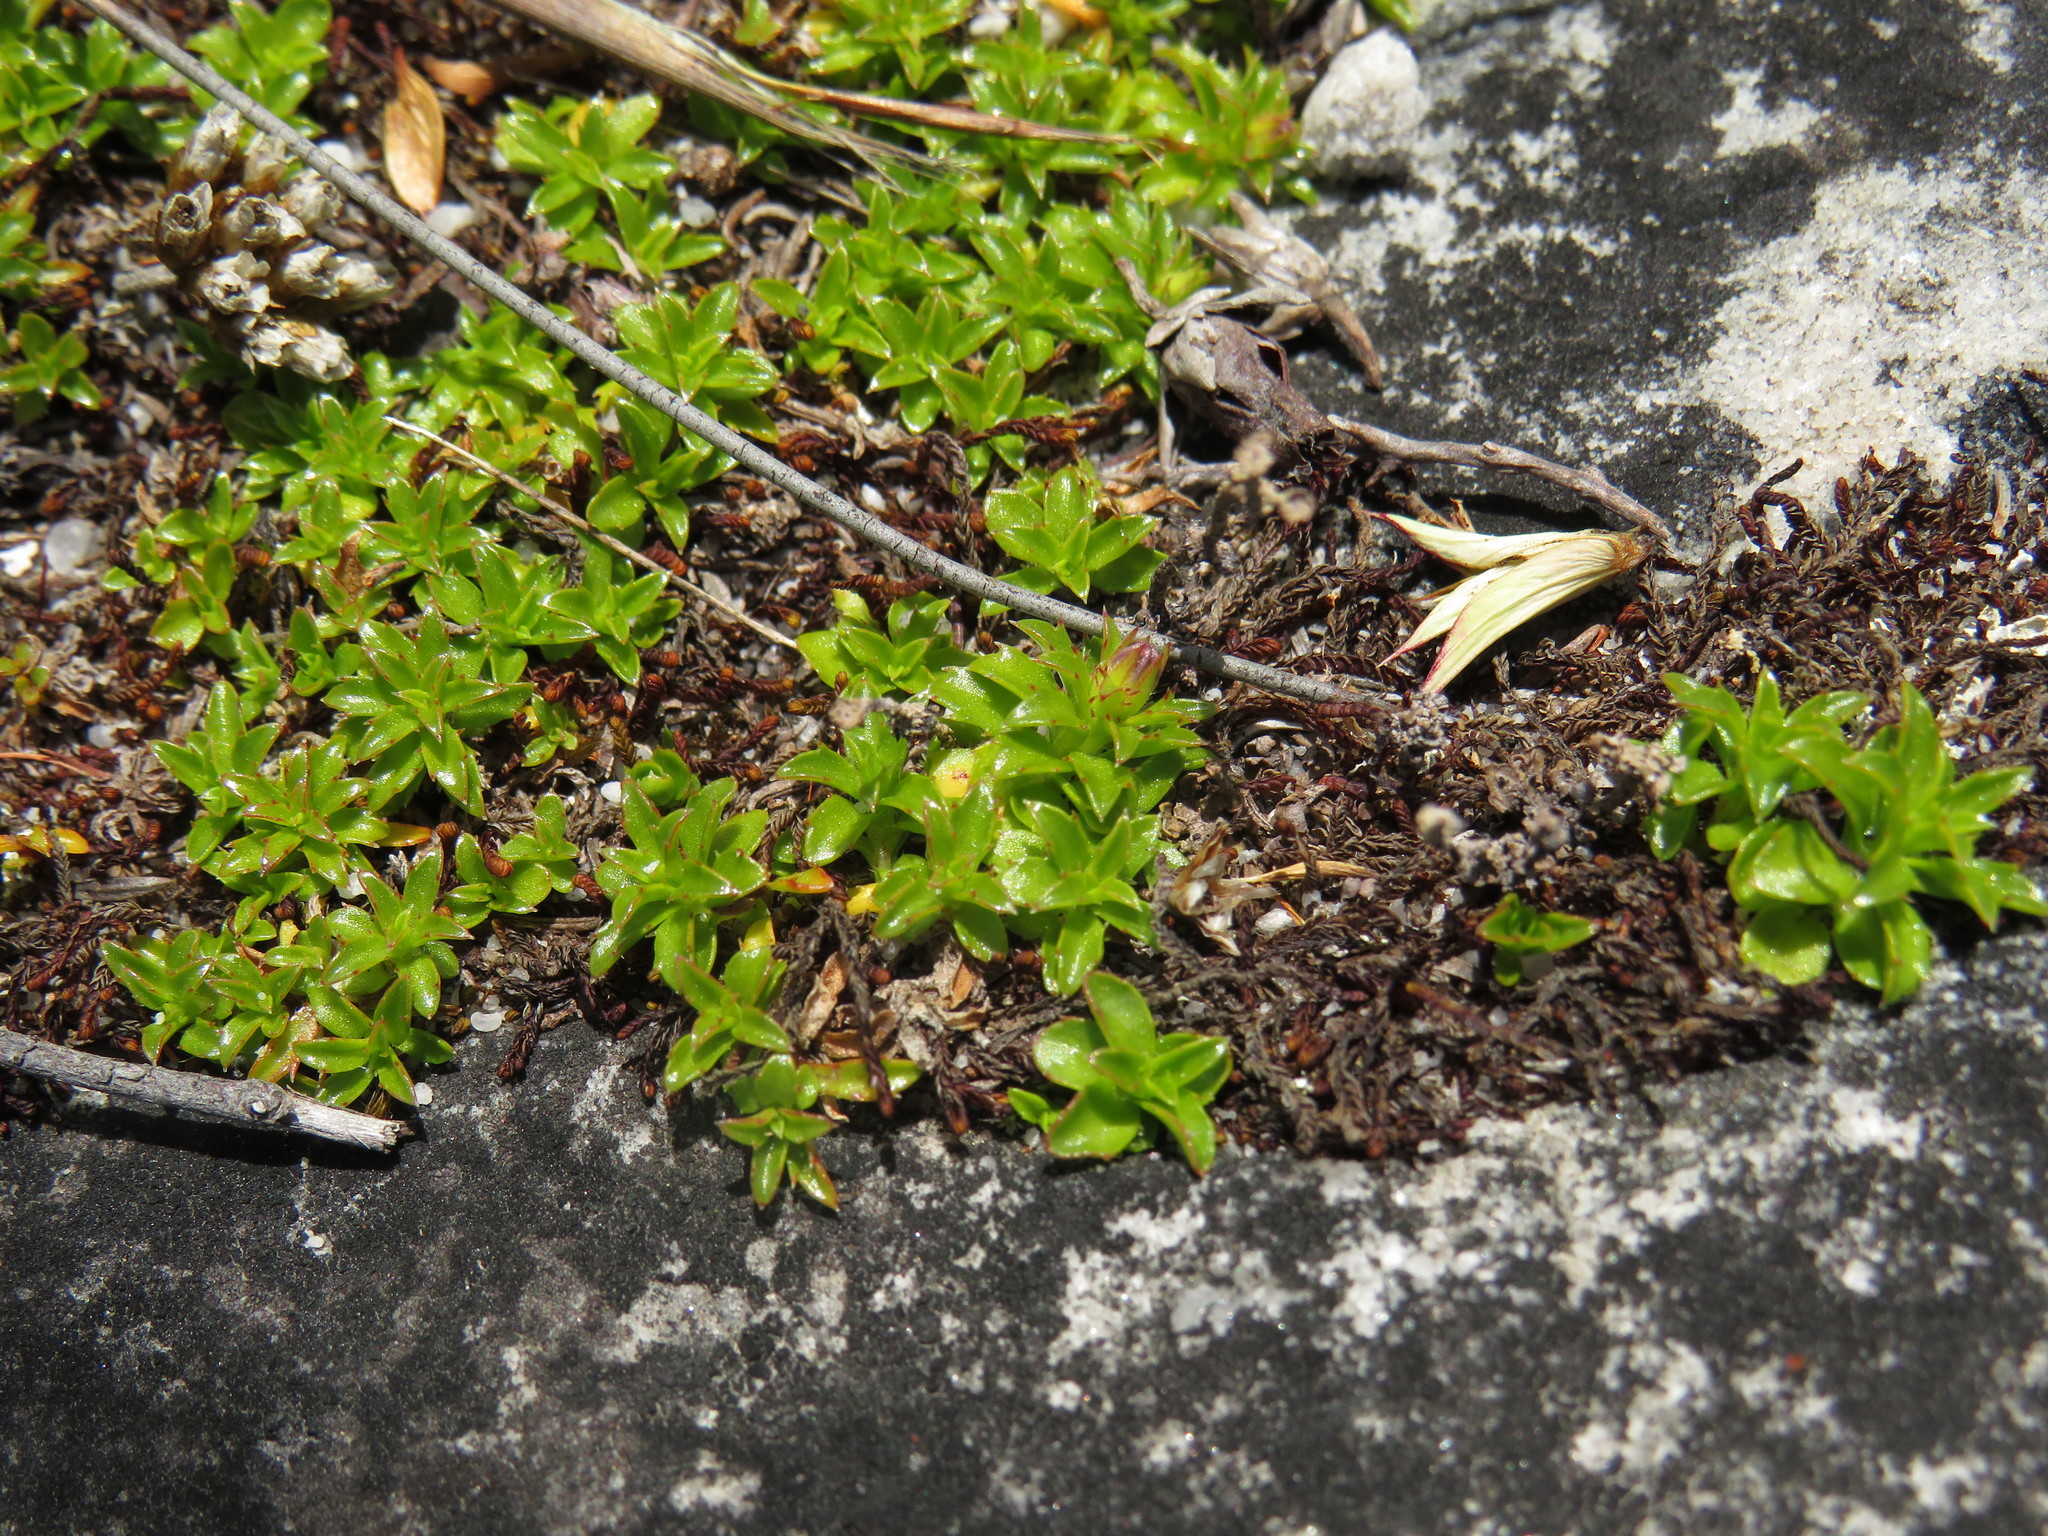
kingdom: Plantae
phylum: Tracheophyta
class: Magnoliopsida
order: Asterales
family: Campanulaceae
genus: Roella
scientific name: Roella muscosa
